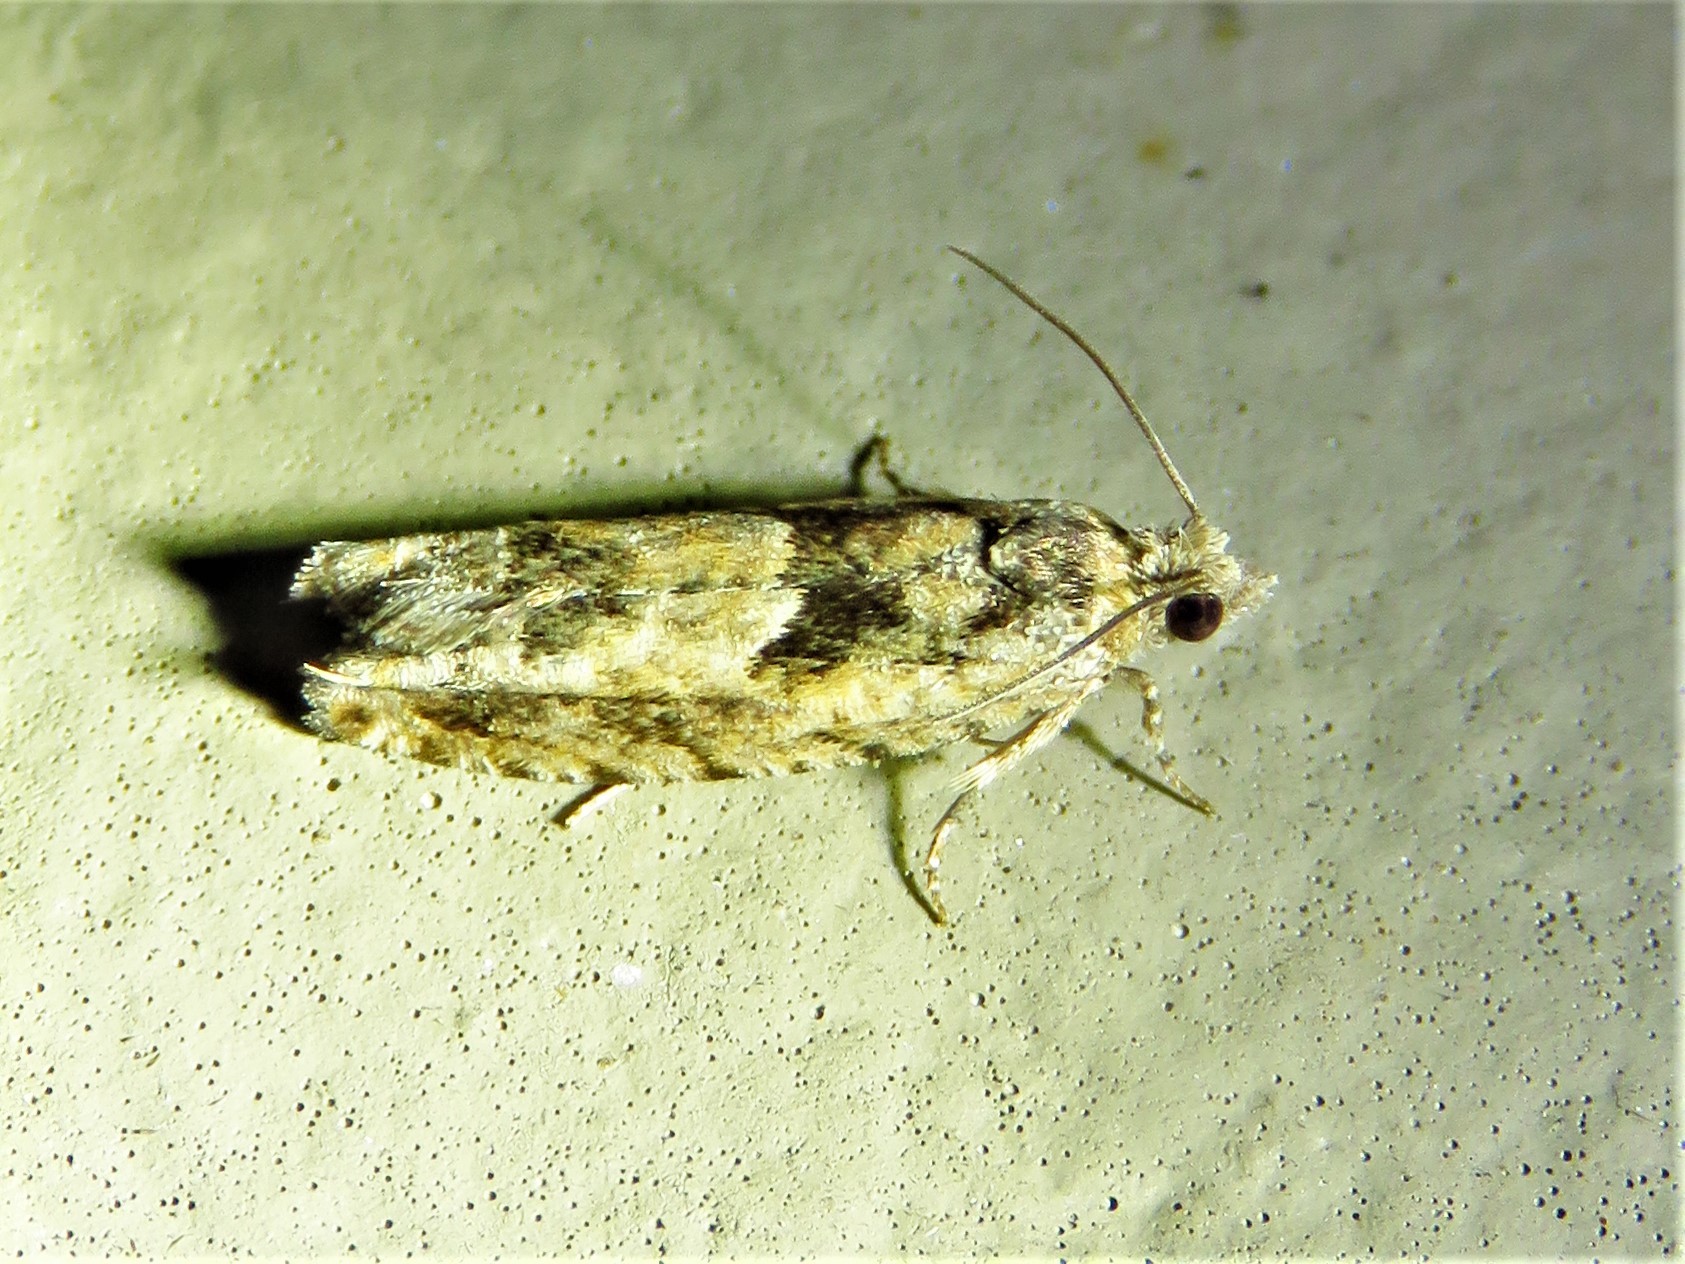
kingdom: Animalia
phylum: Arthropoda
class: Insecta
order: Lepidoptera
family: Tortricidae
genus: Pseudexentera
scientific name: Pseudexentera hodsoni
